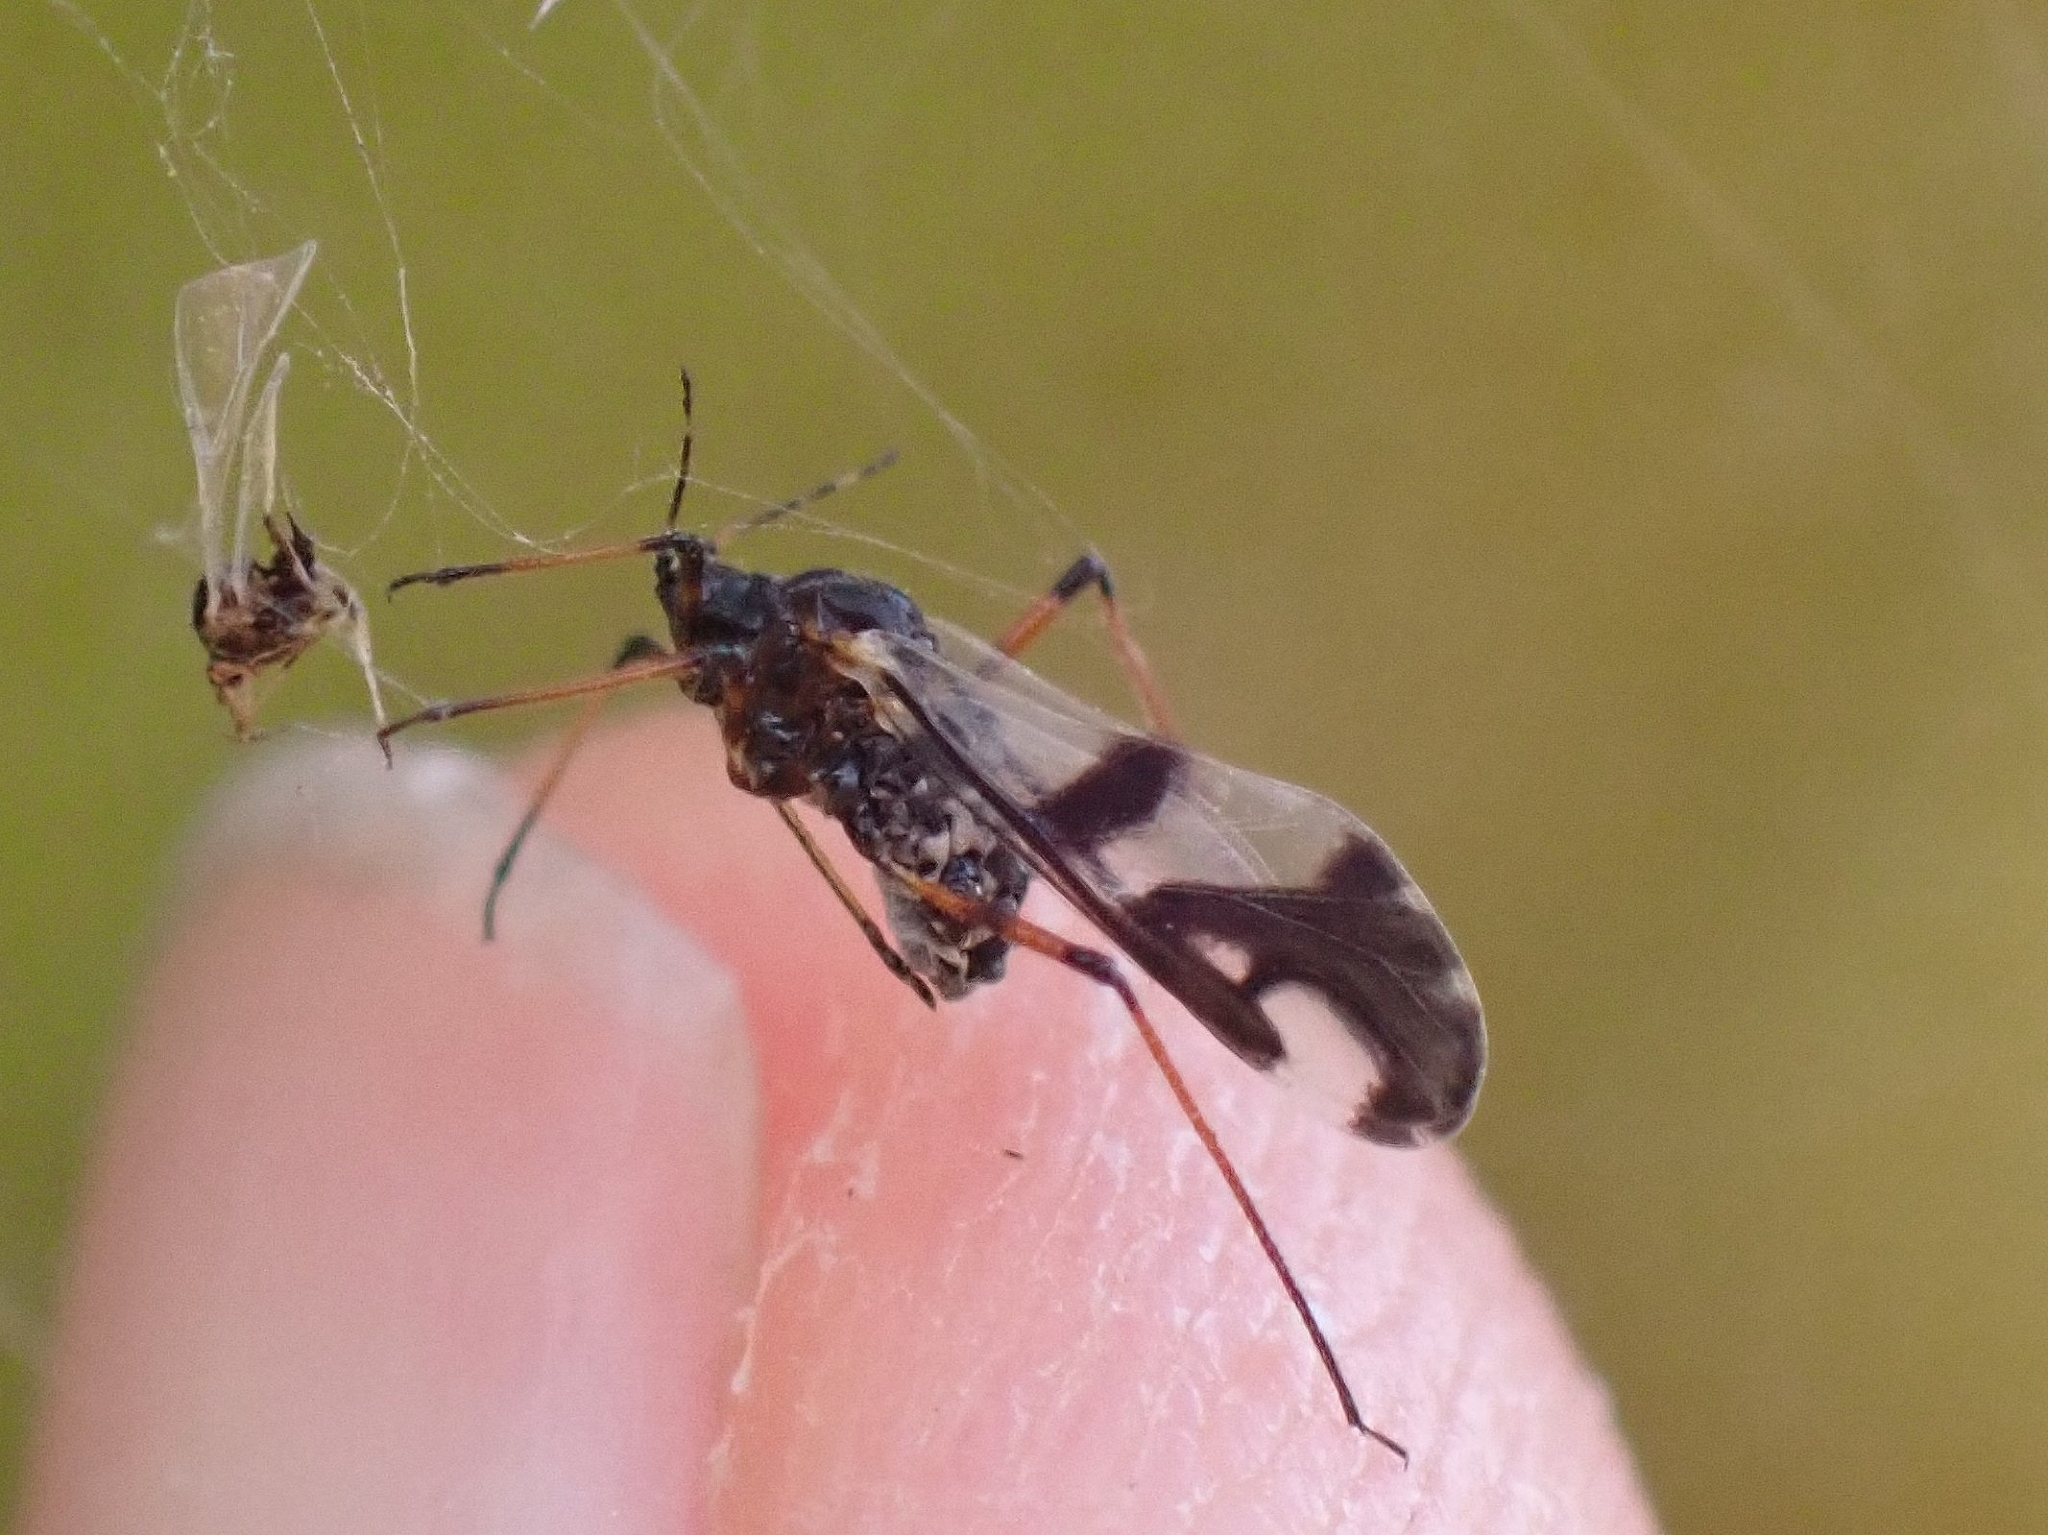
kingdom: Animalia
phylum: Arthropoda
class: Insecta
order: Hemiptera
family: Aphididae
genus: Pterochloroides
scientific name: Pterochloroides persicae
